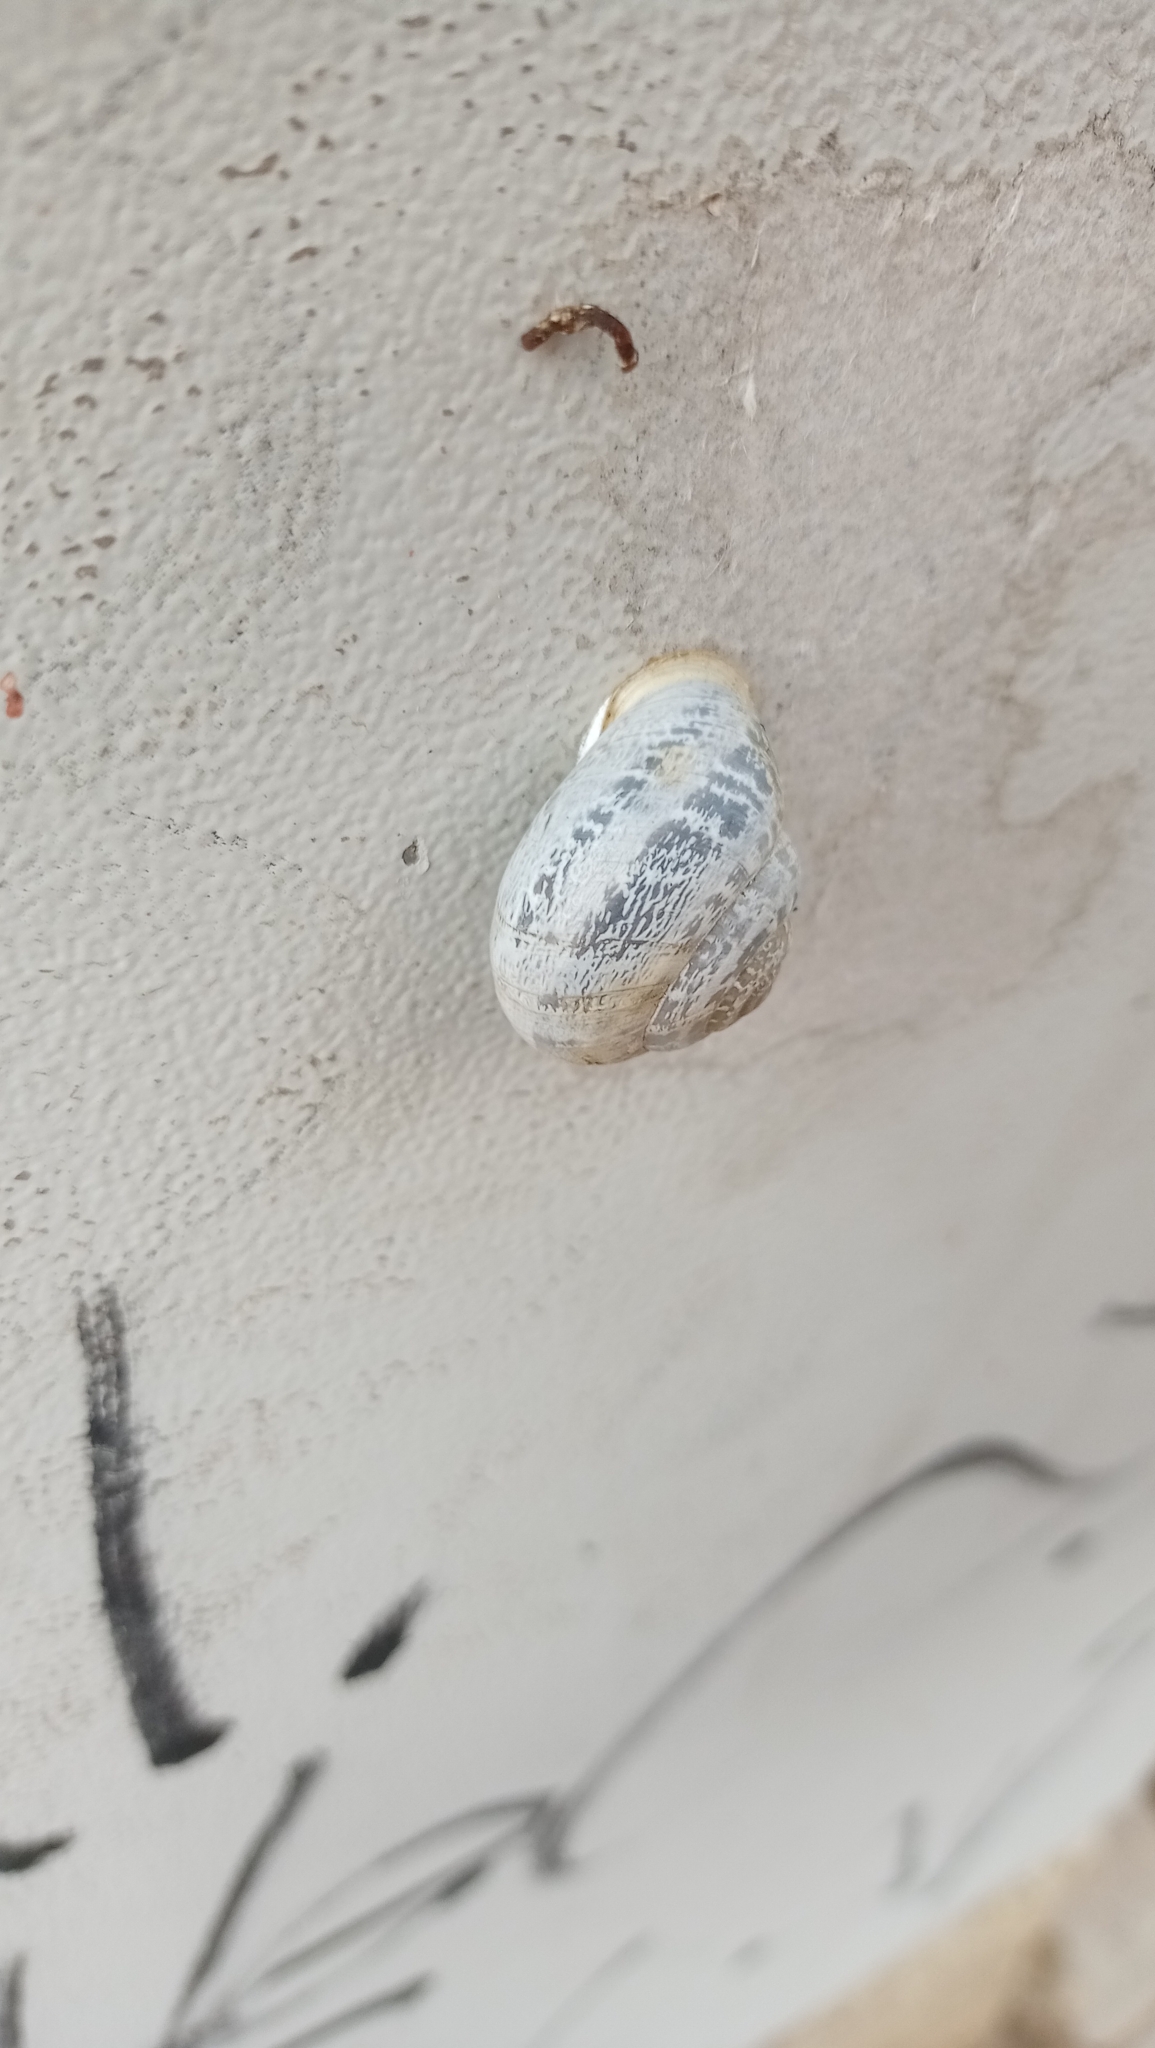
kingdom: Animalia
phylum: Mollusca
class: Gastropoda
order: Stylommatophora
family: Helicidae
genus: Eobania
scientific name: Eobania vermiculata
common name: Chocolateband snail
